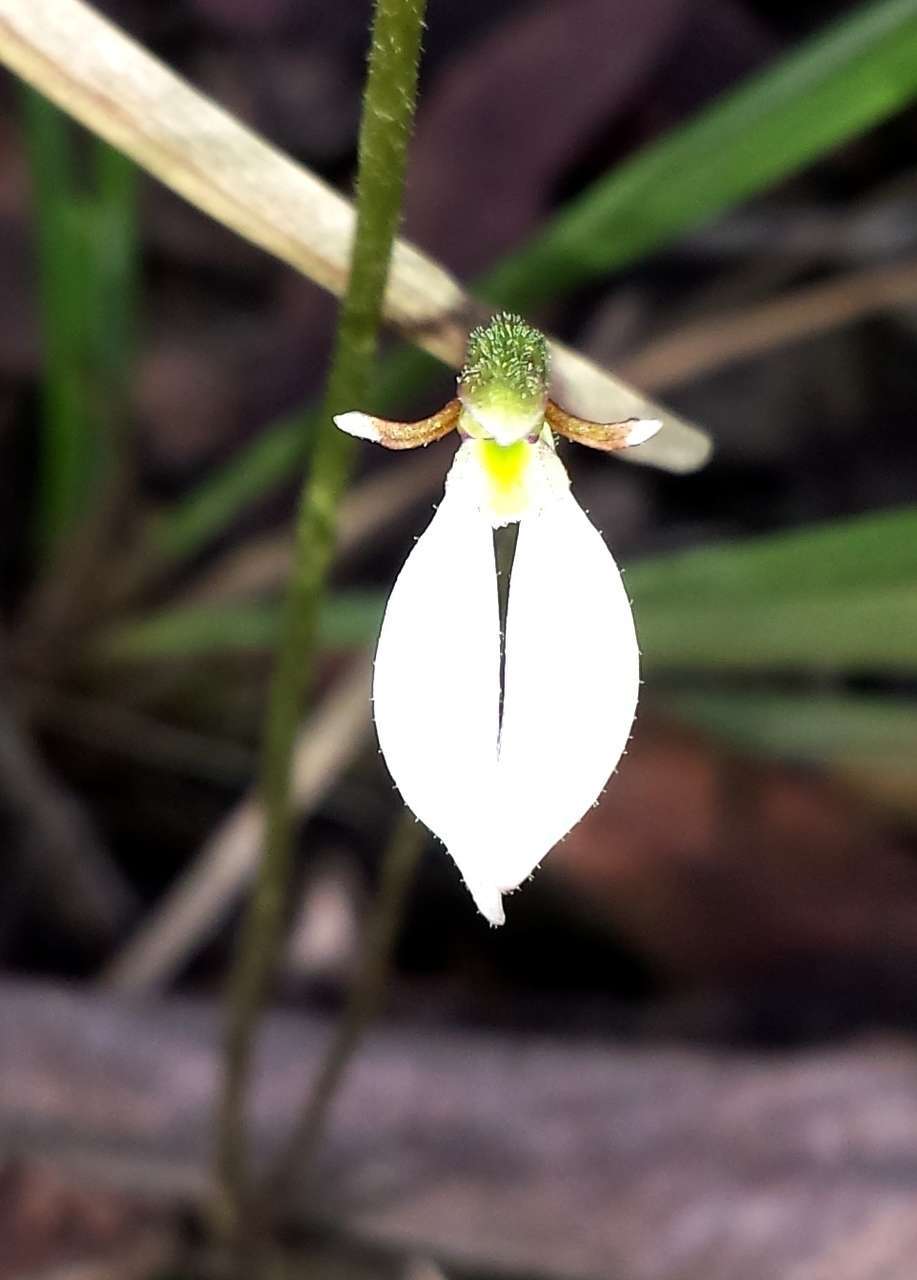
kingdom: Plantae
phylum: Tracheophyta
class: Liliopsida
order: Asparagales
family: Orchidaceae
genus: Eriochilus
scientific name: Eriochilus cucullatus
